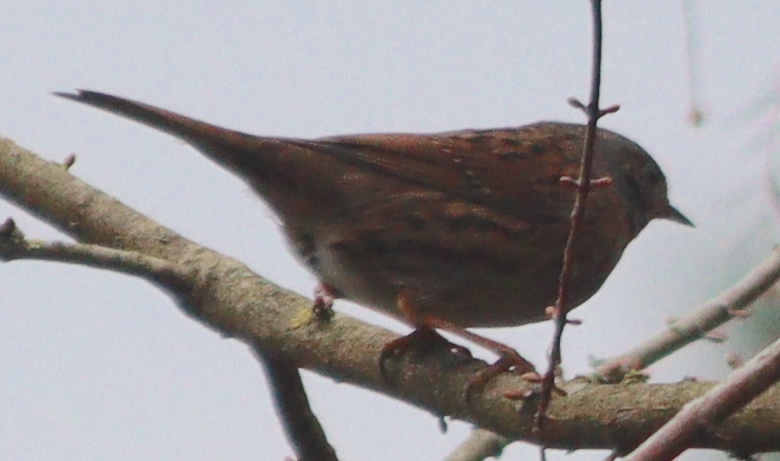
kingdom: Animalia
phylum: Chordata
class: Aves
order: Passeriformes
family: Prunellidae
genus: Prunella
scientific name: Prunella modularis
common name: Dunnock
